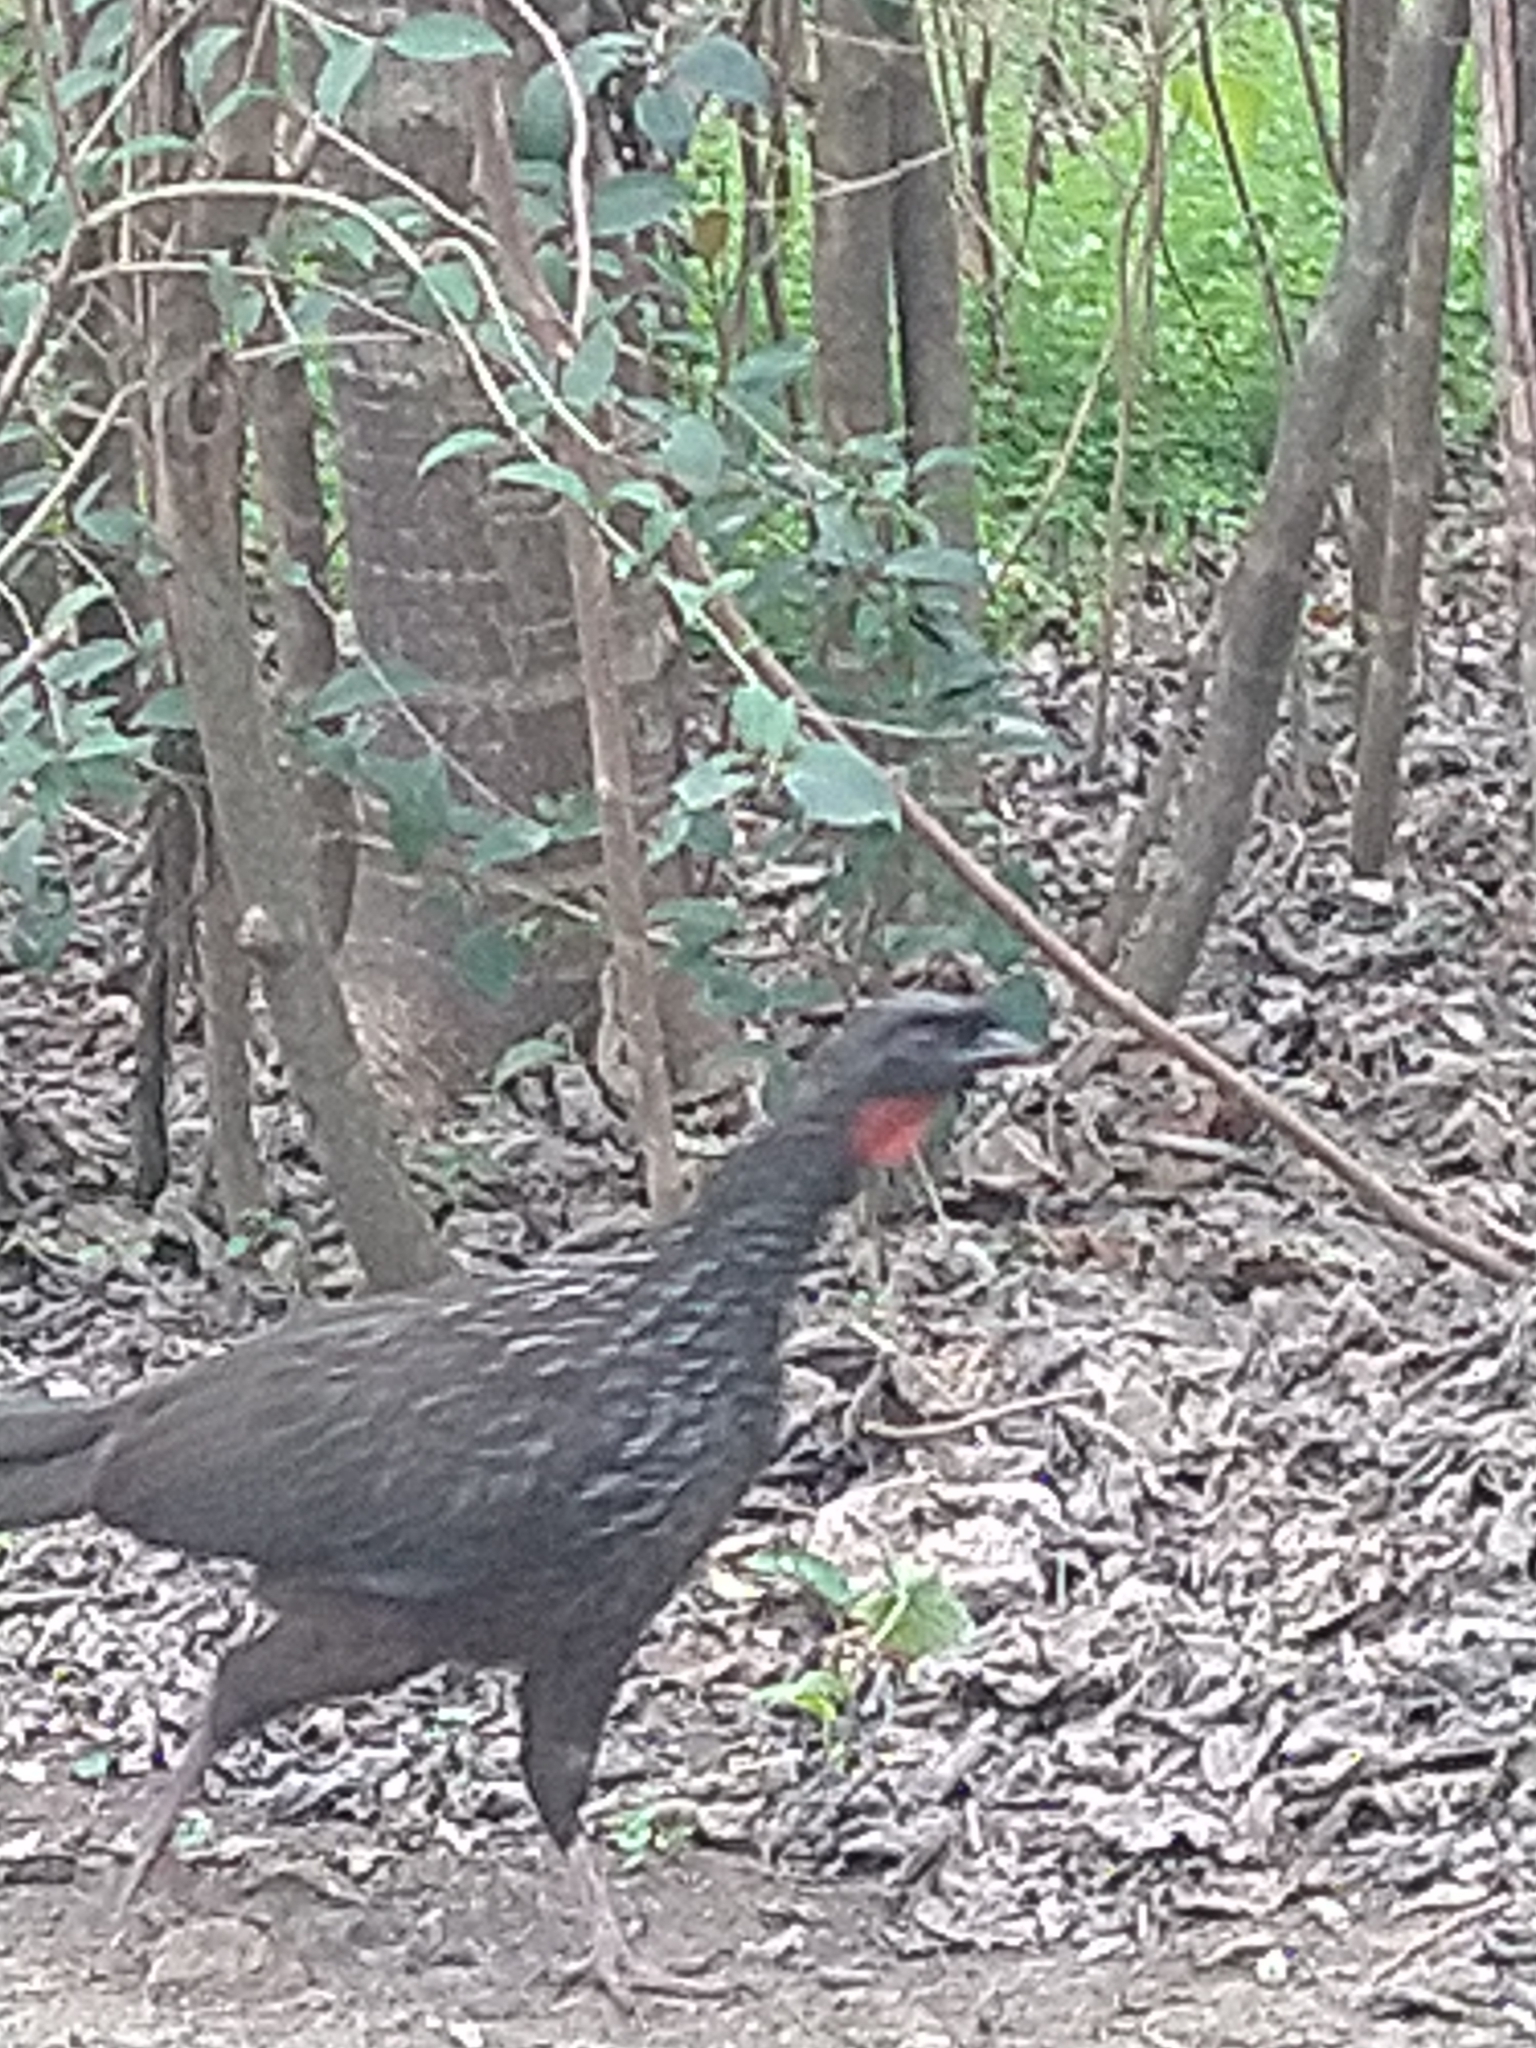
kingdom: Animalia
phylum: Chordata
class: Aves
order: Galliformes
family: Cracidae
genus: Penelope
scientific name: Penelope obscura
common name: Dusky-legged guan
